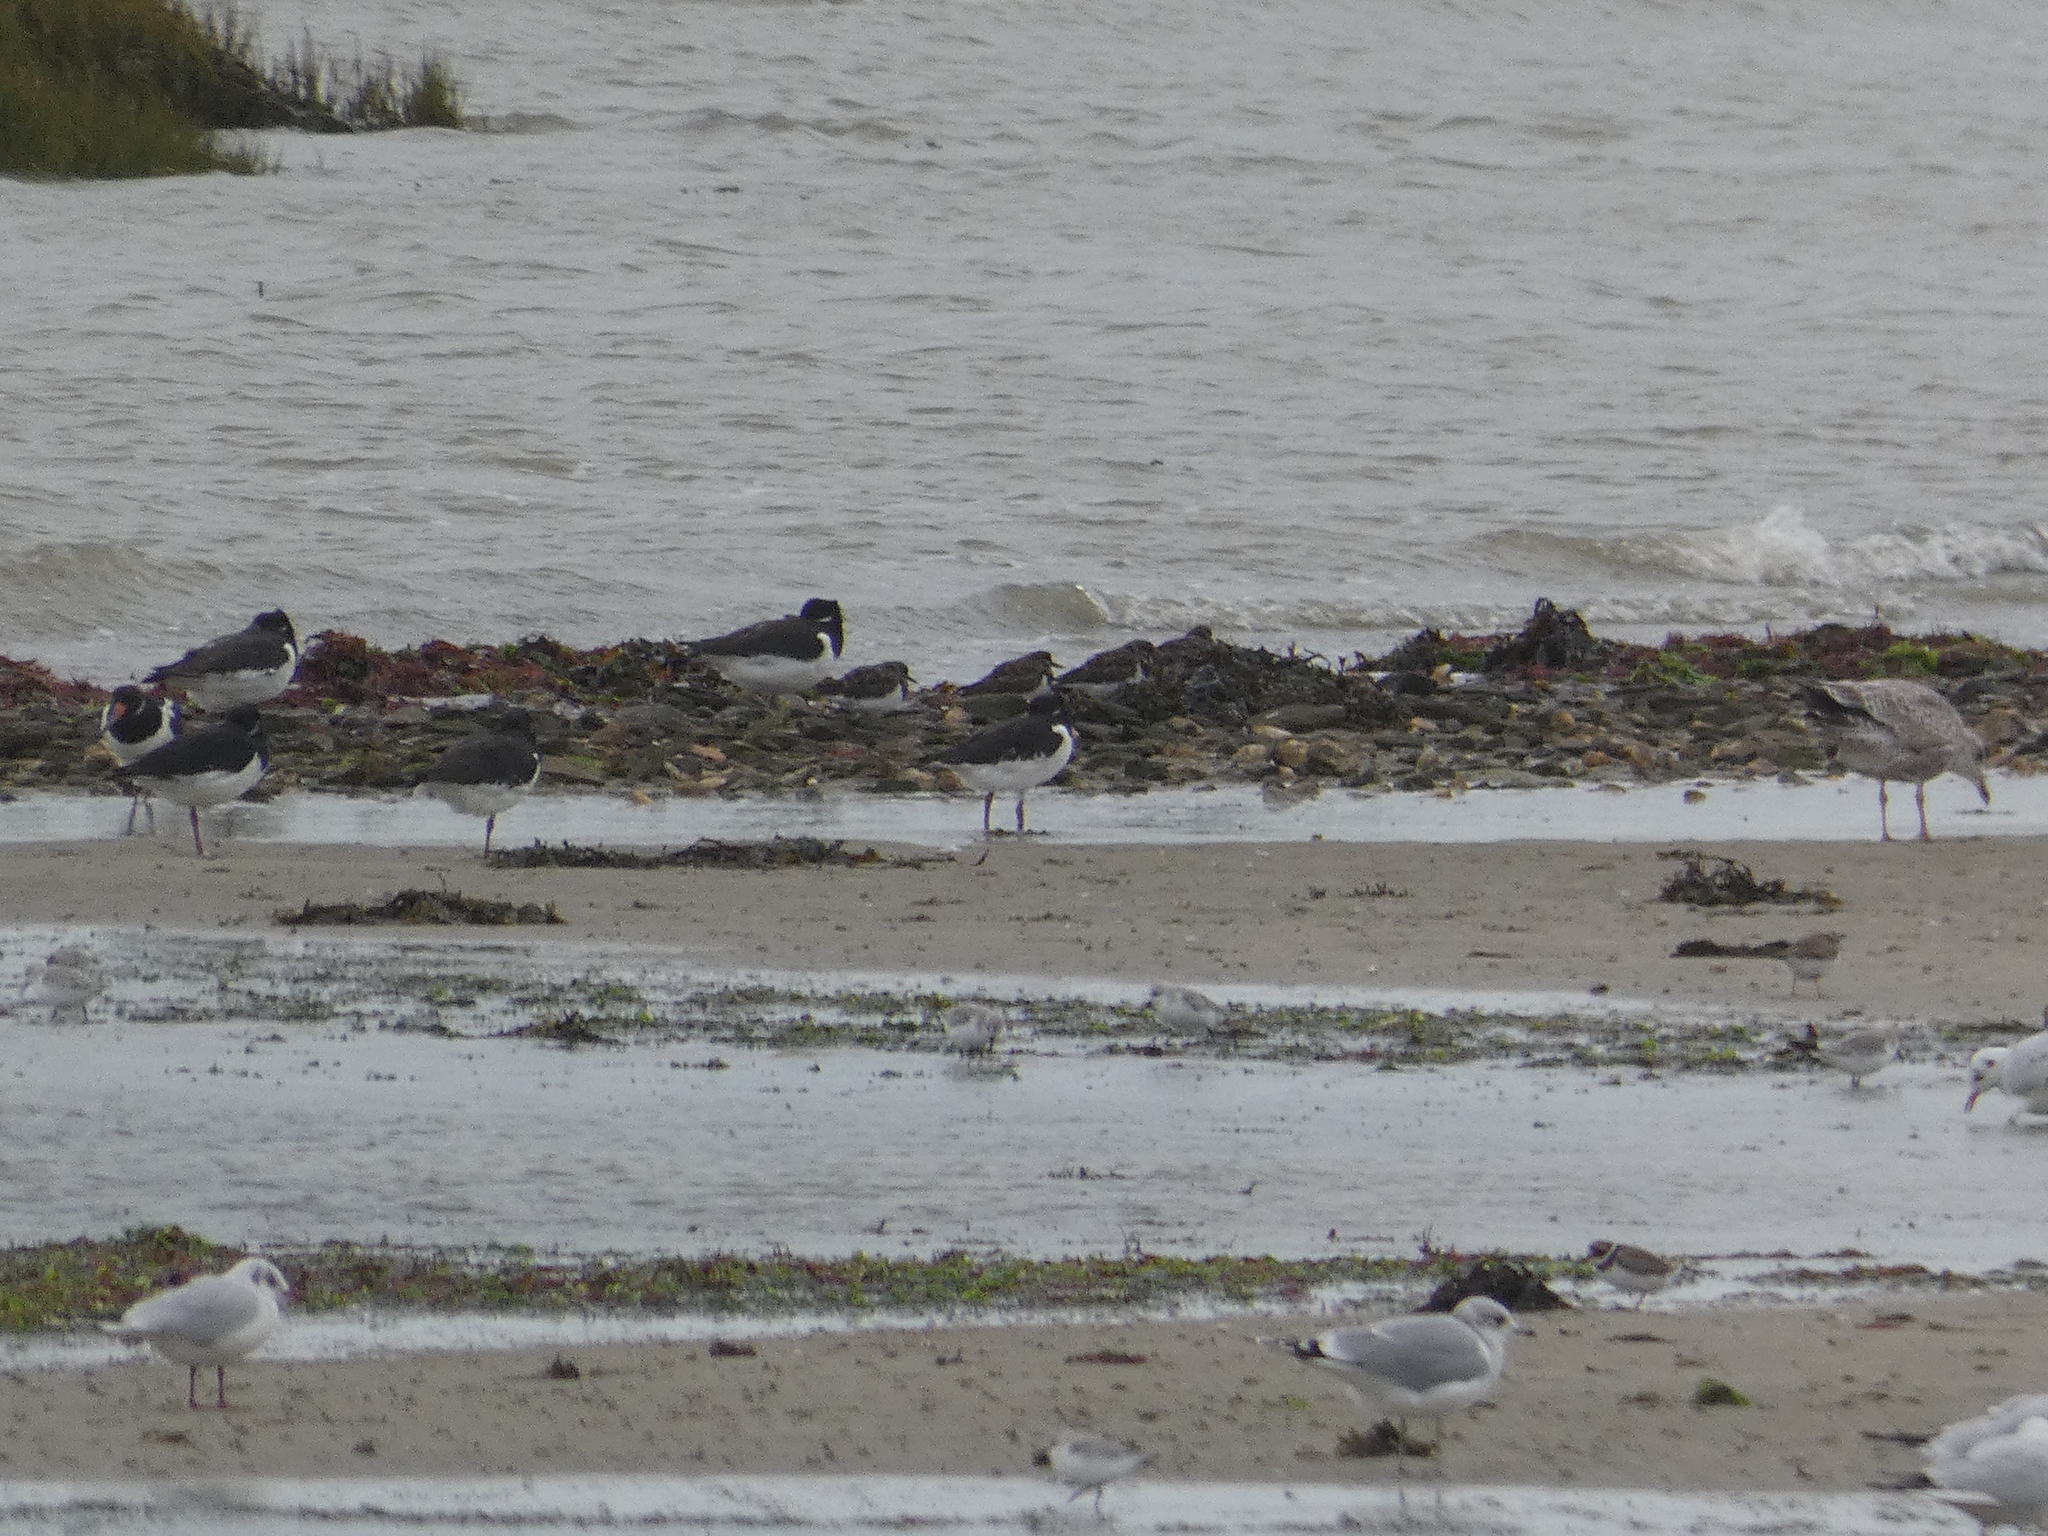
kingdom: Animalia
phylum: Chordata
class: Aves
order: Charadriiformes
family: Haematopodidae
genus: Haematopus
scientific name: Haematopus ostralegus
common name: Eurasian oystercatcher
